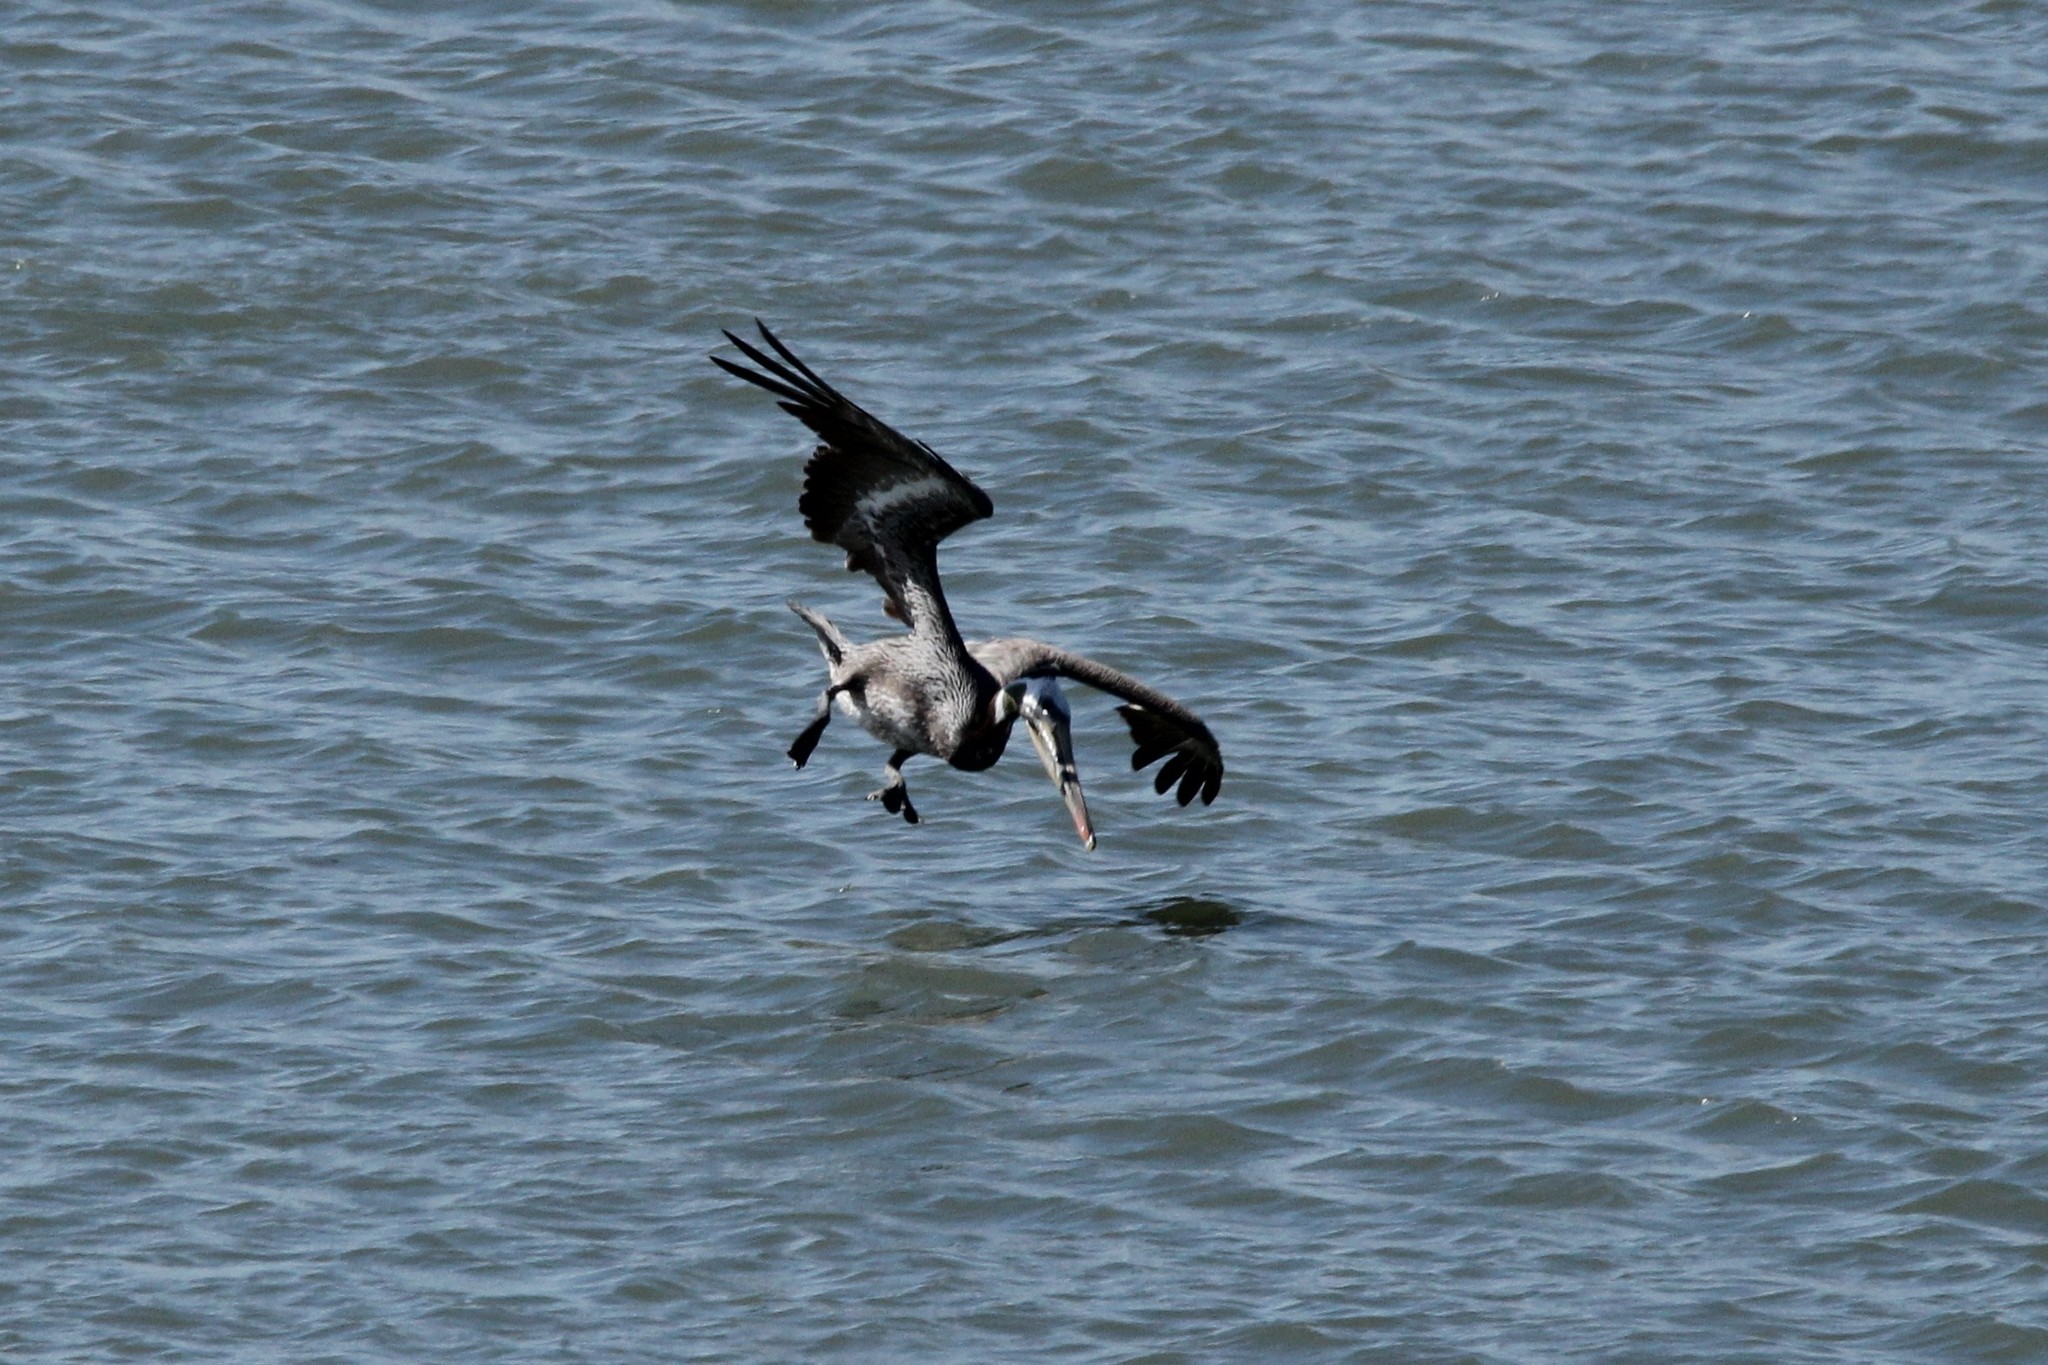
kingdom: Animalia
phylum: Chordata
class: Aves
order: Pelecaniformes
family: Pelecanidae
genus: Pelecanus
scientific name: Pelecanus occidentalis
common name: Brown pelican
